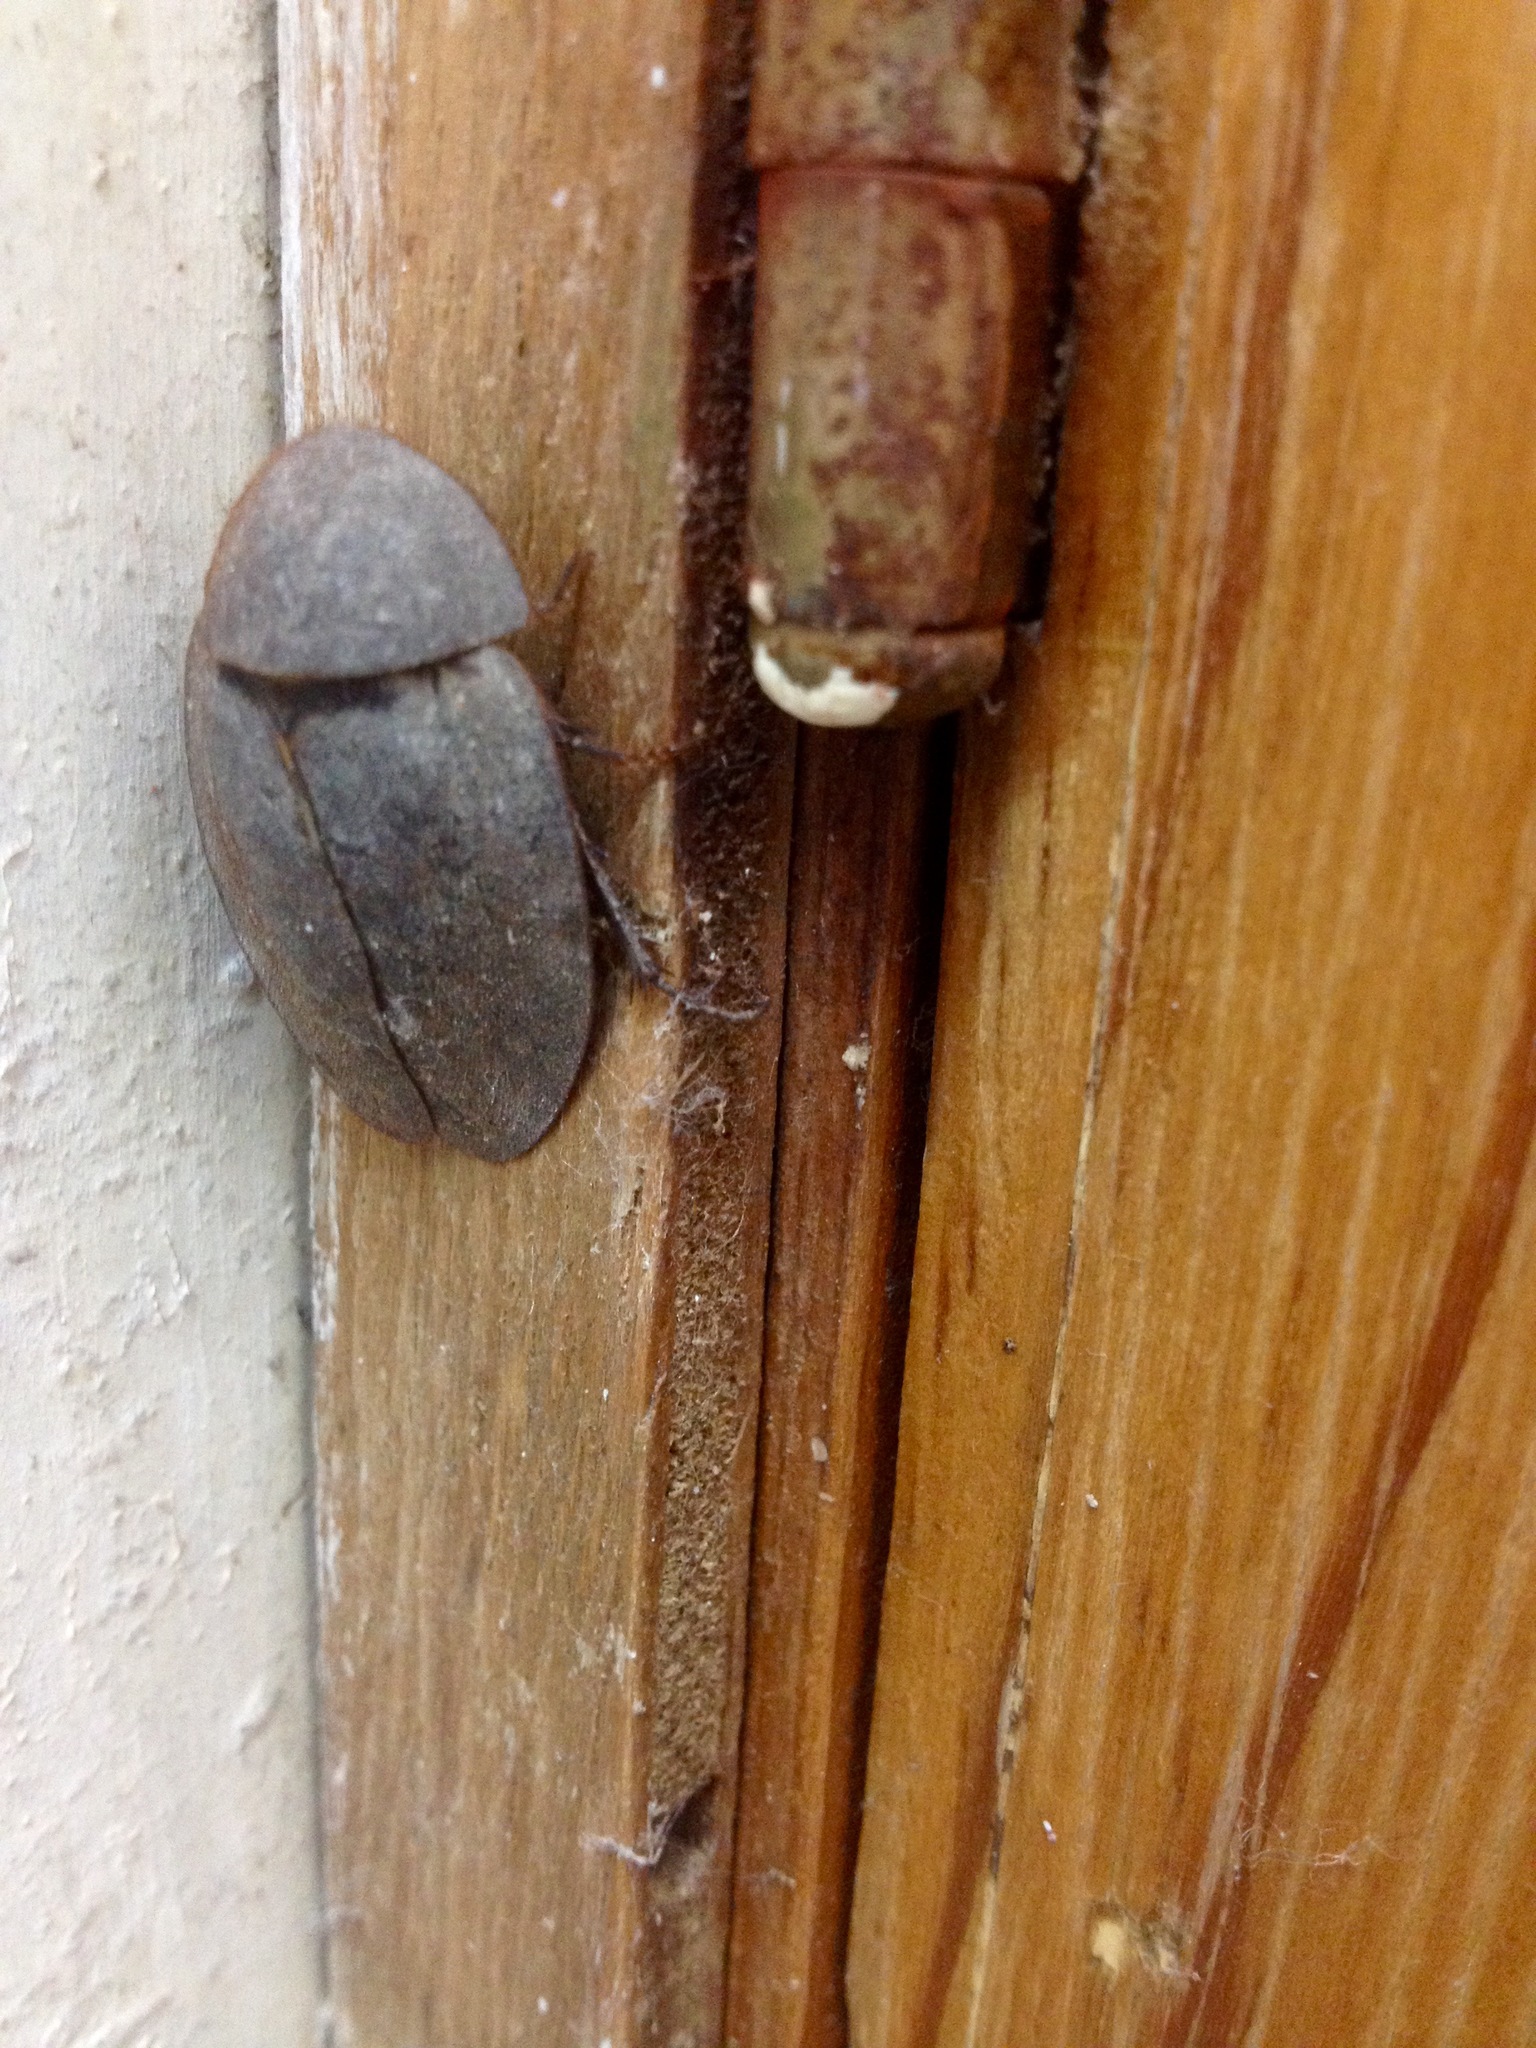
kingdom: Animalia
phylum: Arthropoda
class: Insecta
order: Blattodea
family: Corydiidae
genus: Homoeogamia
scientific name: Homoeogamia mexicana
